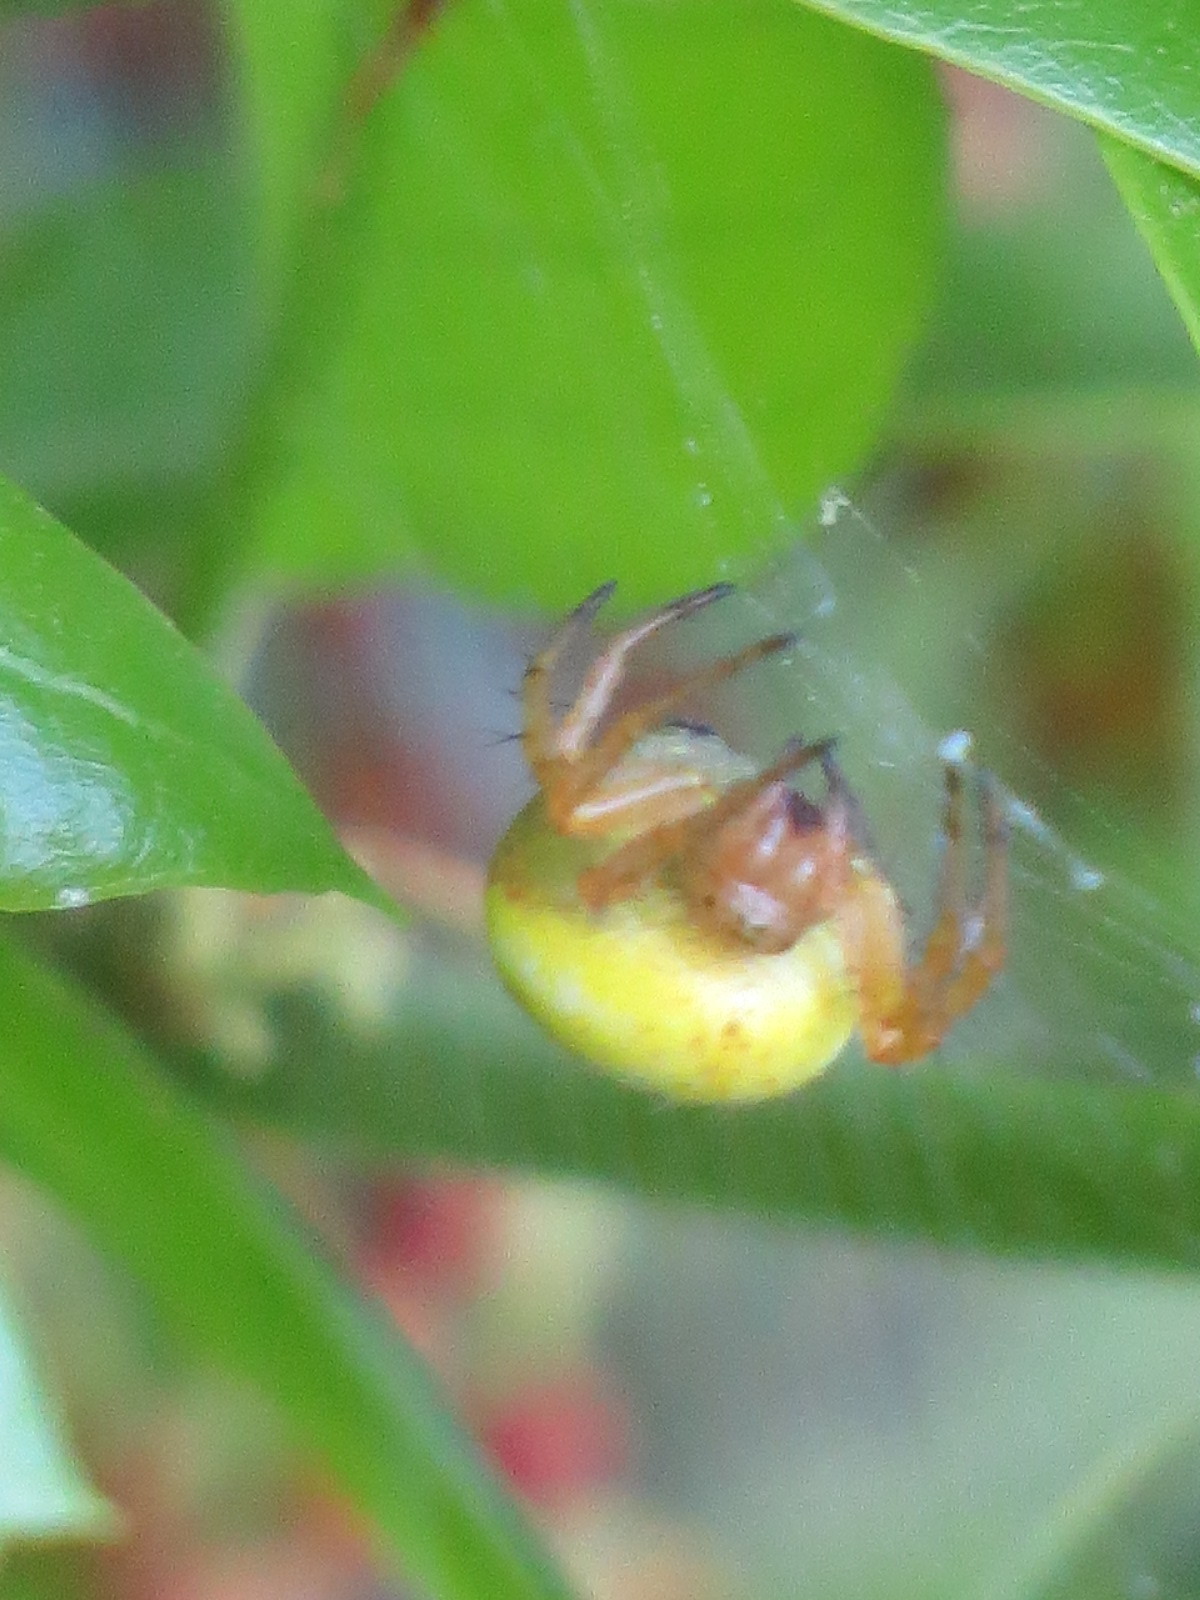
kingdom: Animalia
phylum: Arthropoda
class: Arachnida
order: Araneae
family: Araneidae
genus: Araniella
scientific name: Araniella displicata
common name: Sixspotted orb weaver
